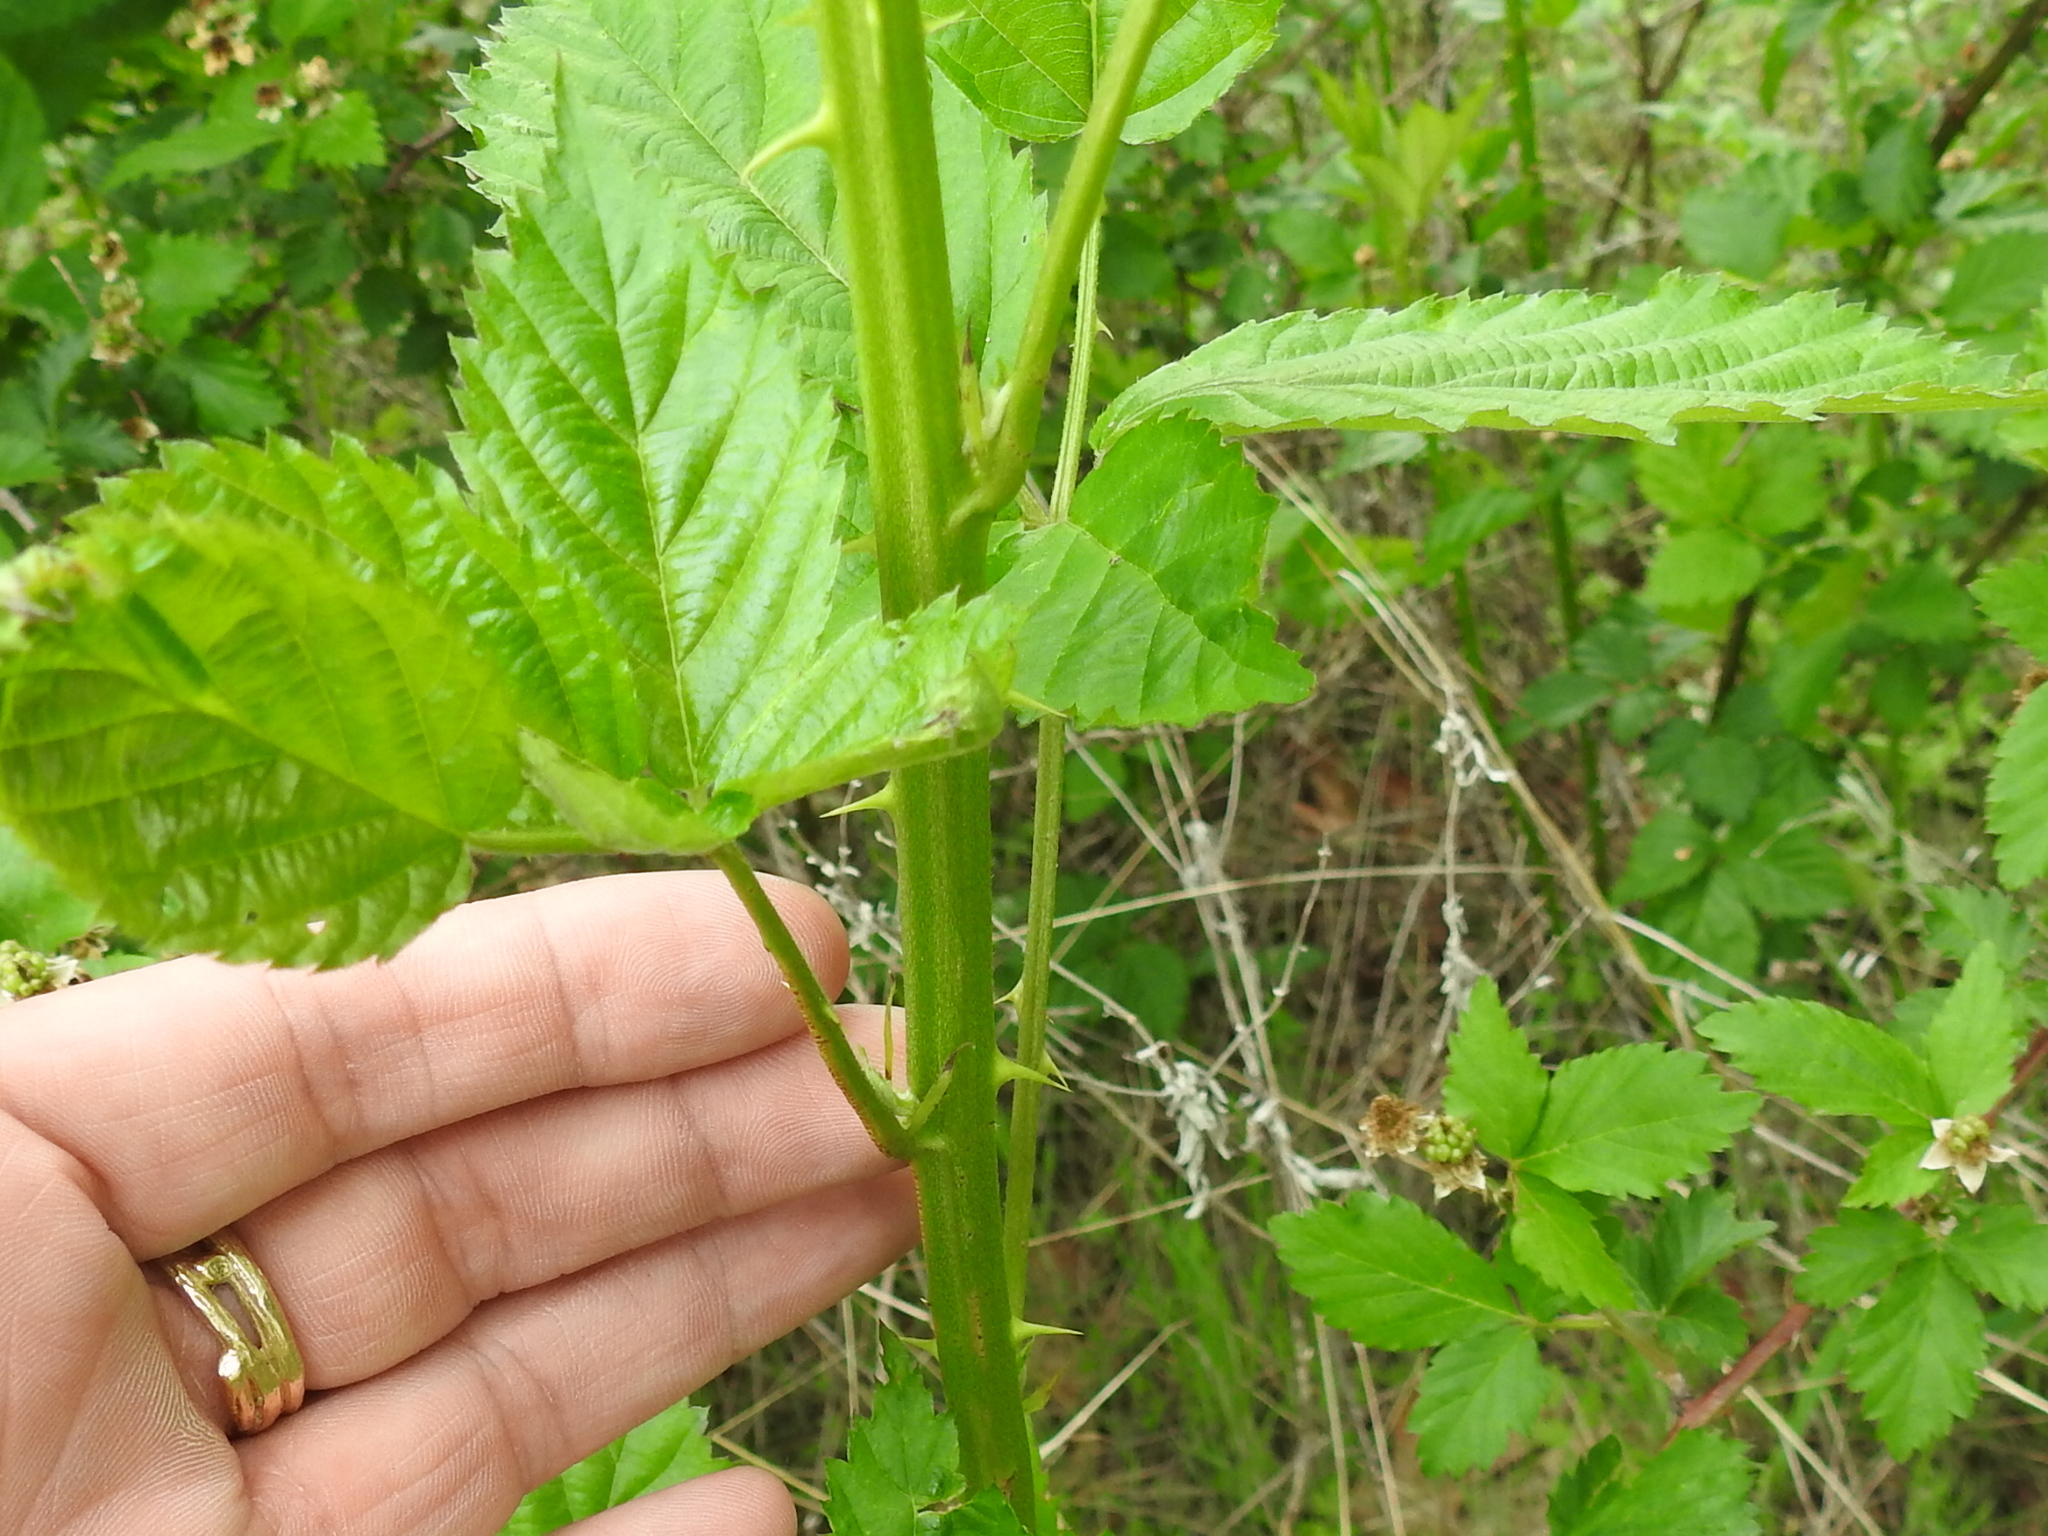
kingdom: Plantae
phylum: Tracheophyta
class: Magnoliopsida
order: Rosales
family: Rosaceae
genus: Rubus
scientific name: Rubus oklahomus
